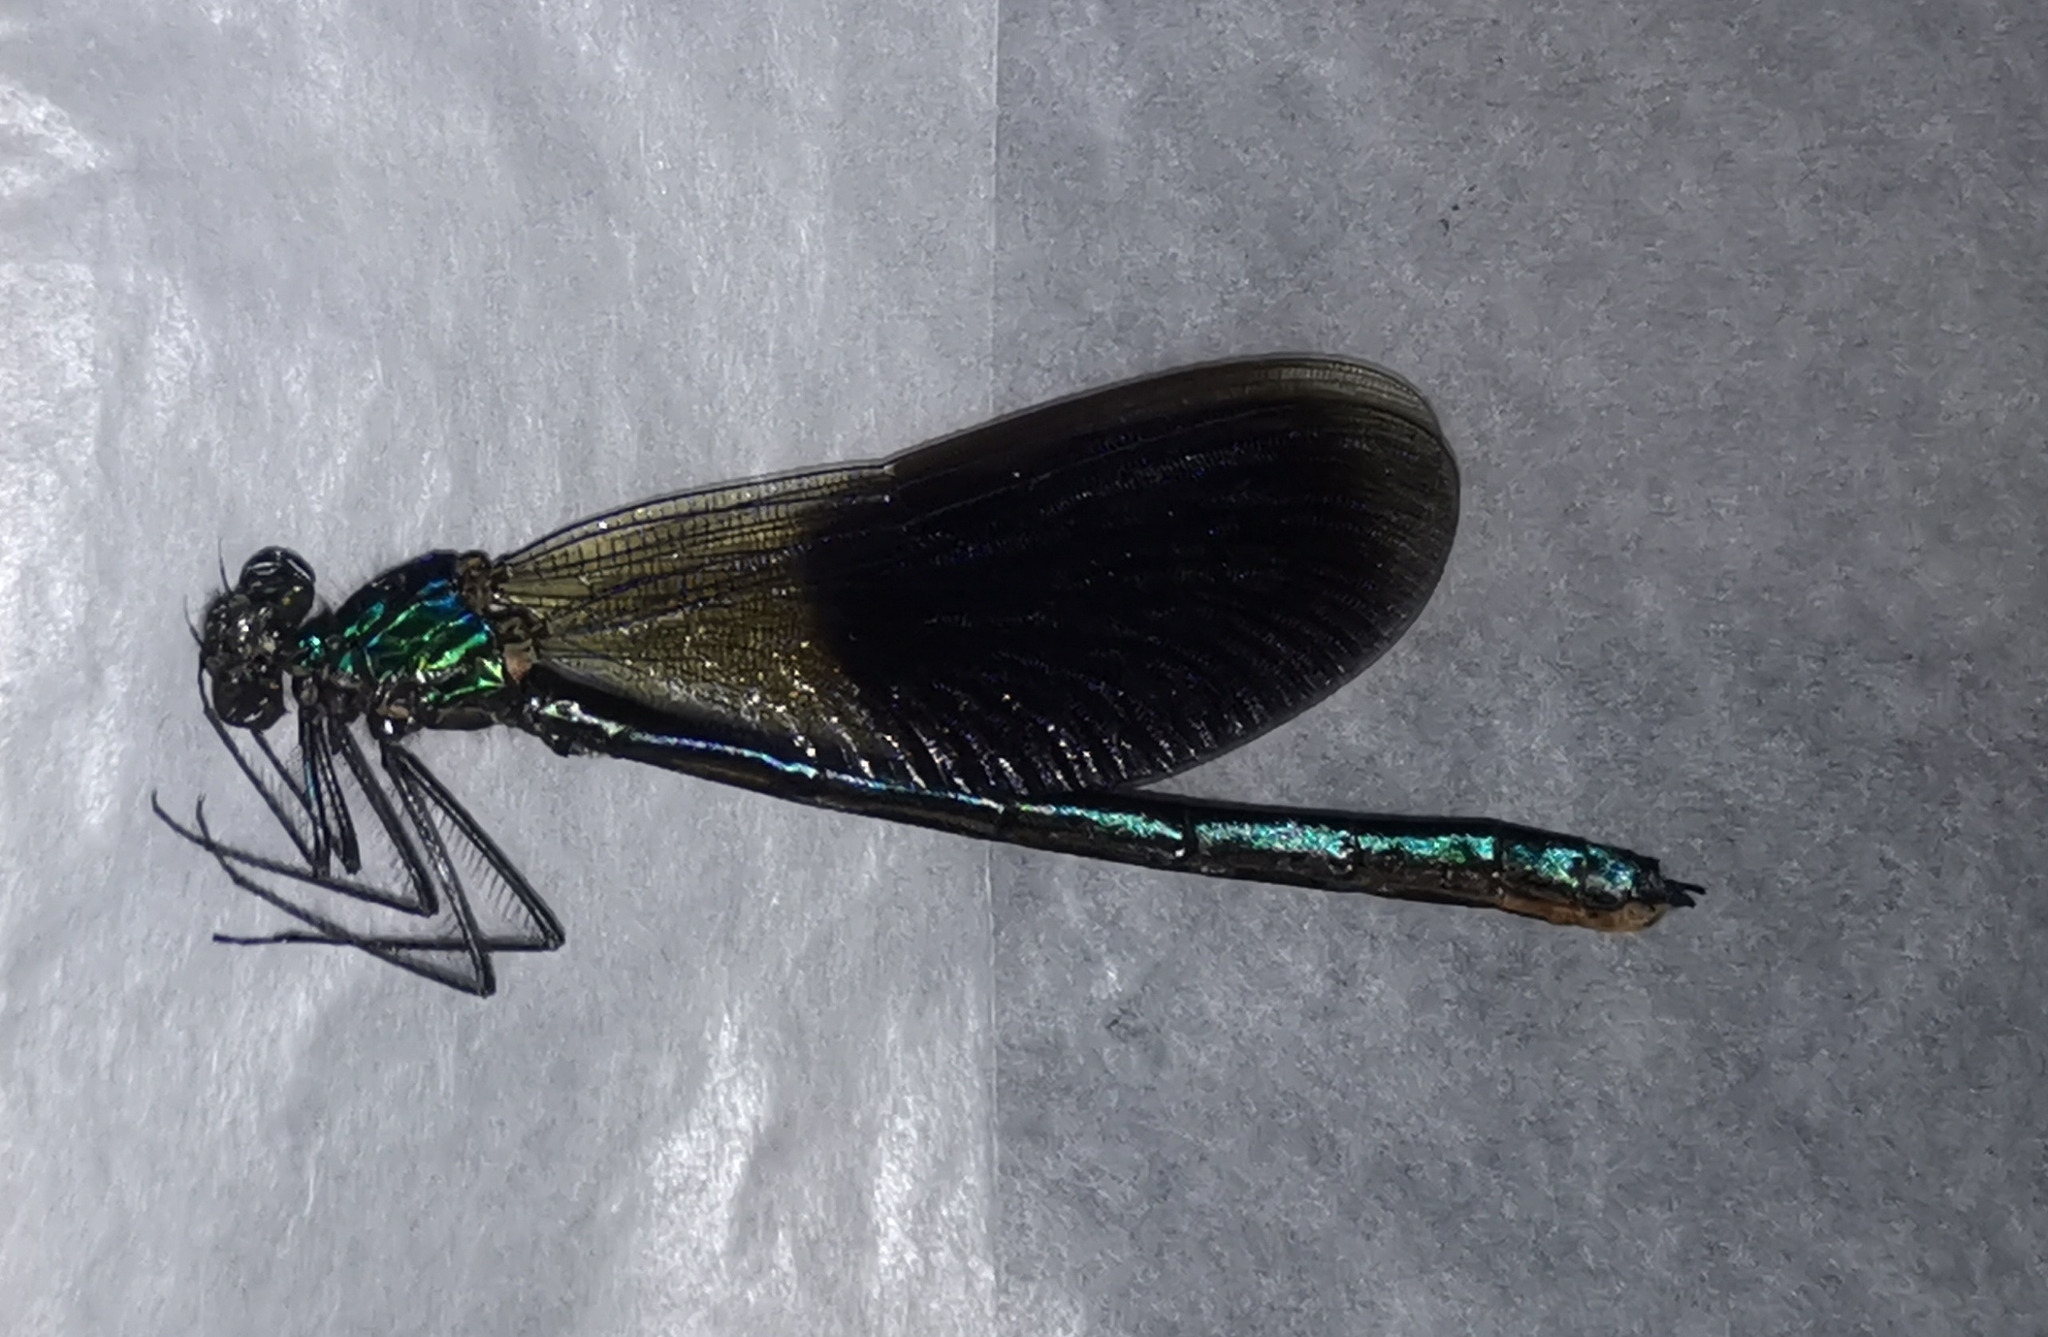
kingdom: Animalia
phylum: Arthropoda
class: Insecta
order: Odonata
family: Calopterygidae
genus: Calopteryx
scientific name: Calopteryx splendens
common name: Banded demoiselle
